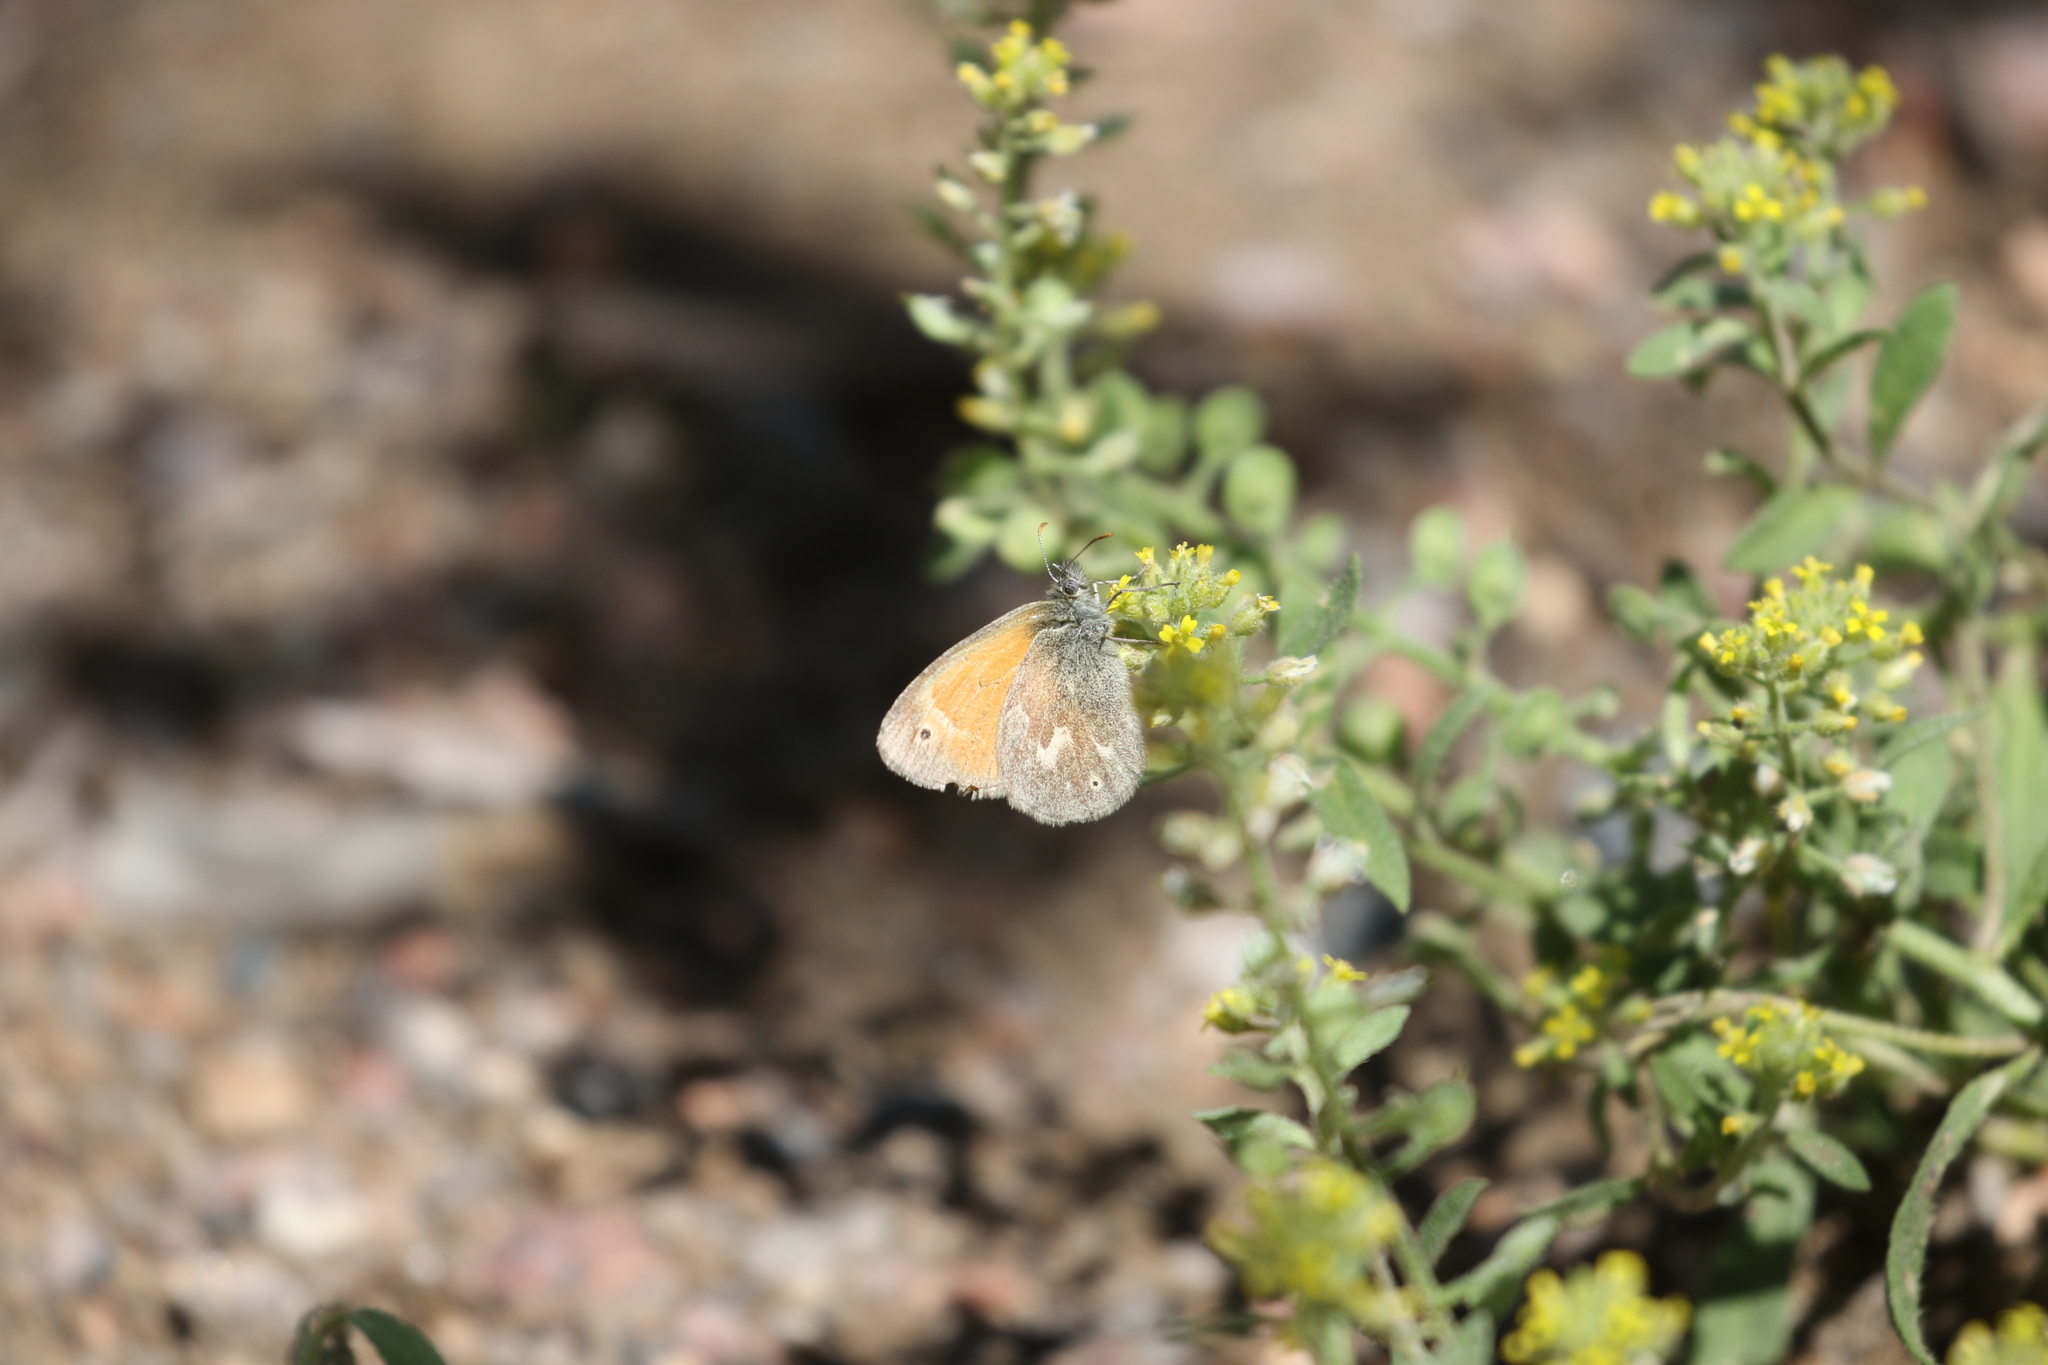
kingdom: Animalia
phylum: Arthropoda
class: Insecta
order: Lepidoptera
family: Nymphalidae
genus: Coenonympha
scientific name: Coenonympha california
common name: Common ringlet
